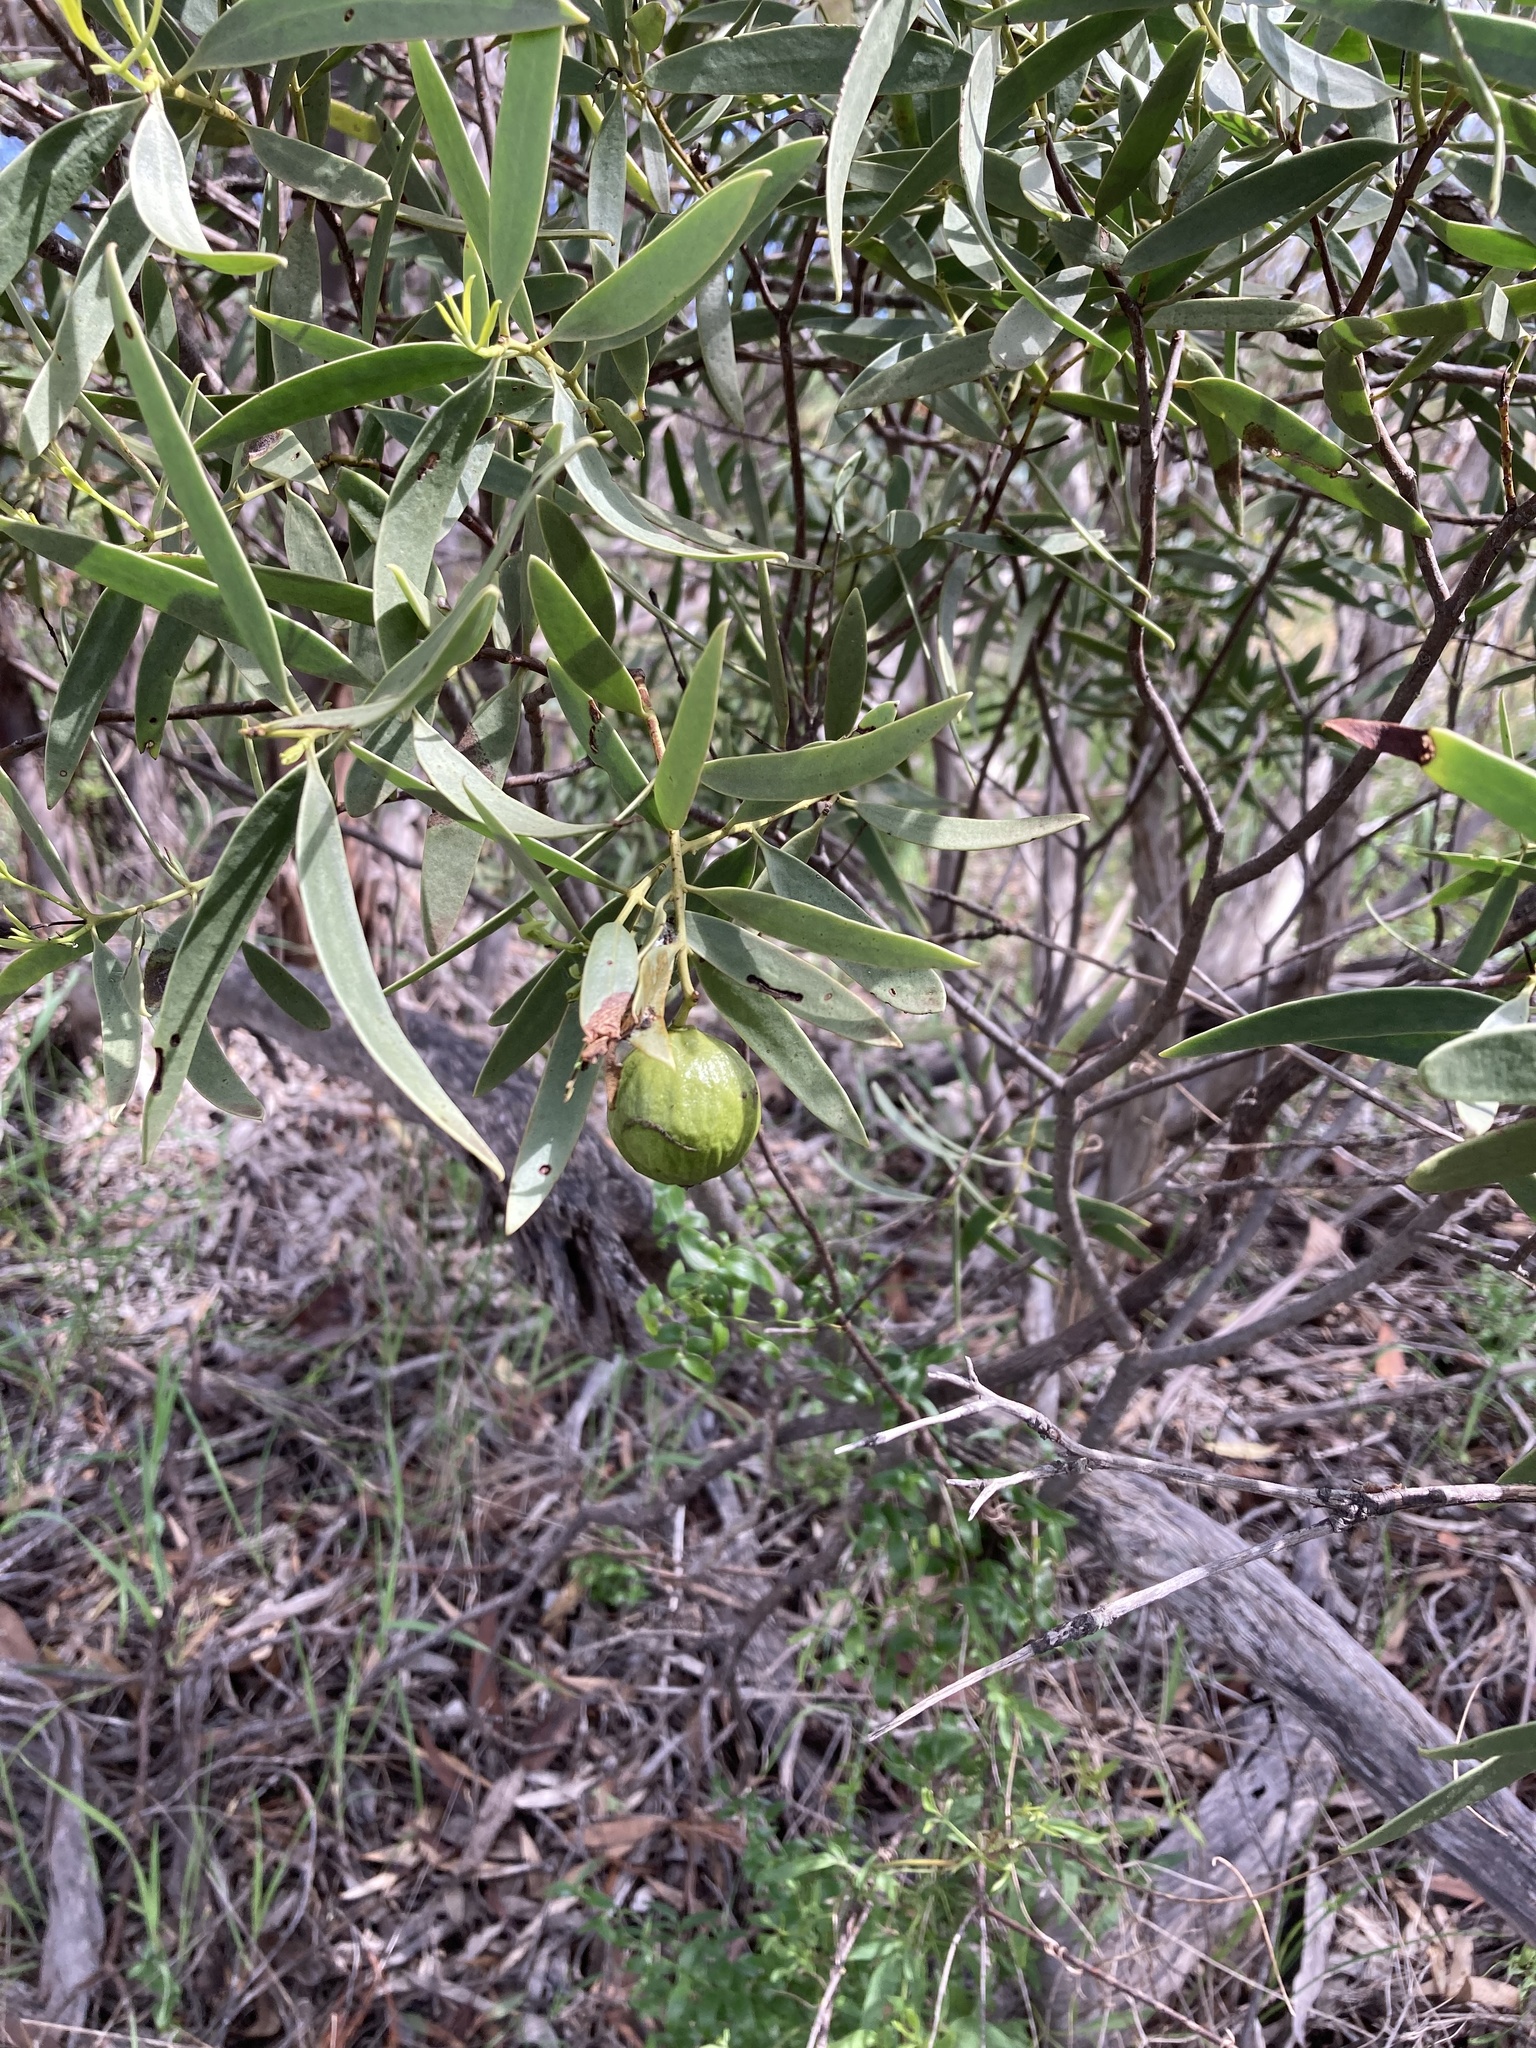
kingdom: Plantae
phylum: Tracheophyta
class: Magnoliopsida
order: Santalales
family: Santalaceae
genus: Santalum
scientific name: Santalum acuminatum
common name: Sweet quandong
